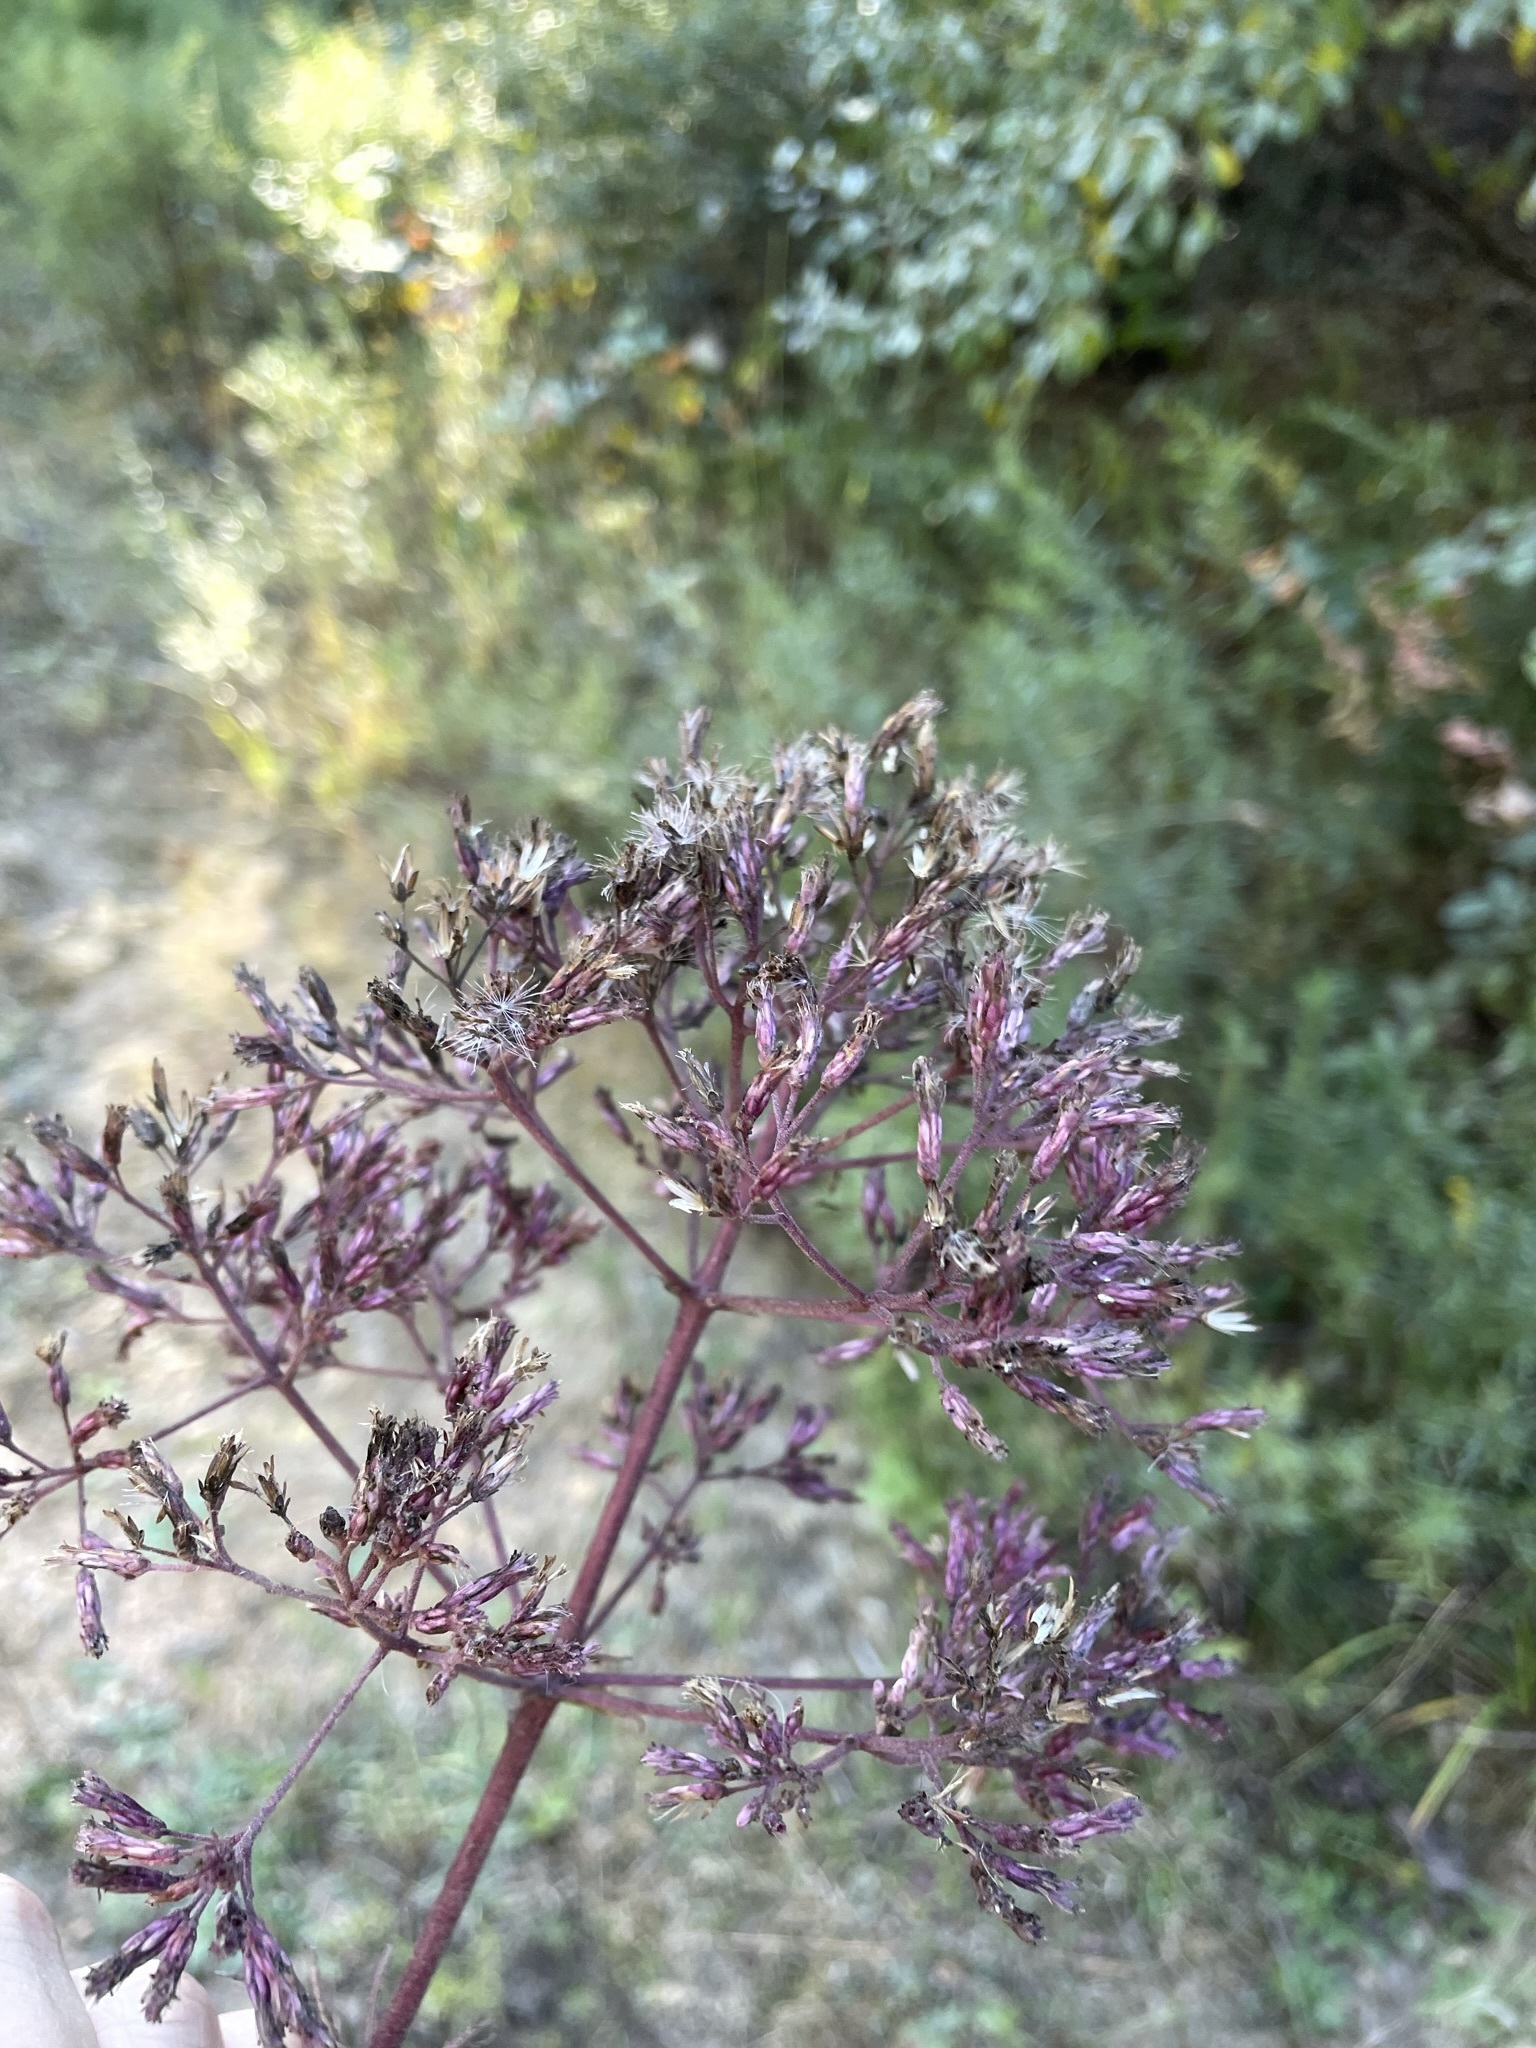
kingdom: Plantae
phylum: Tracheophyta
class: Magnoliopsida
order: Asterales
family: Asteraceae
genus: Eutrochium
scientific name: Eutrochium fistulosum
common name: Trumpetweed
